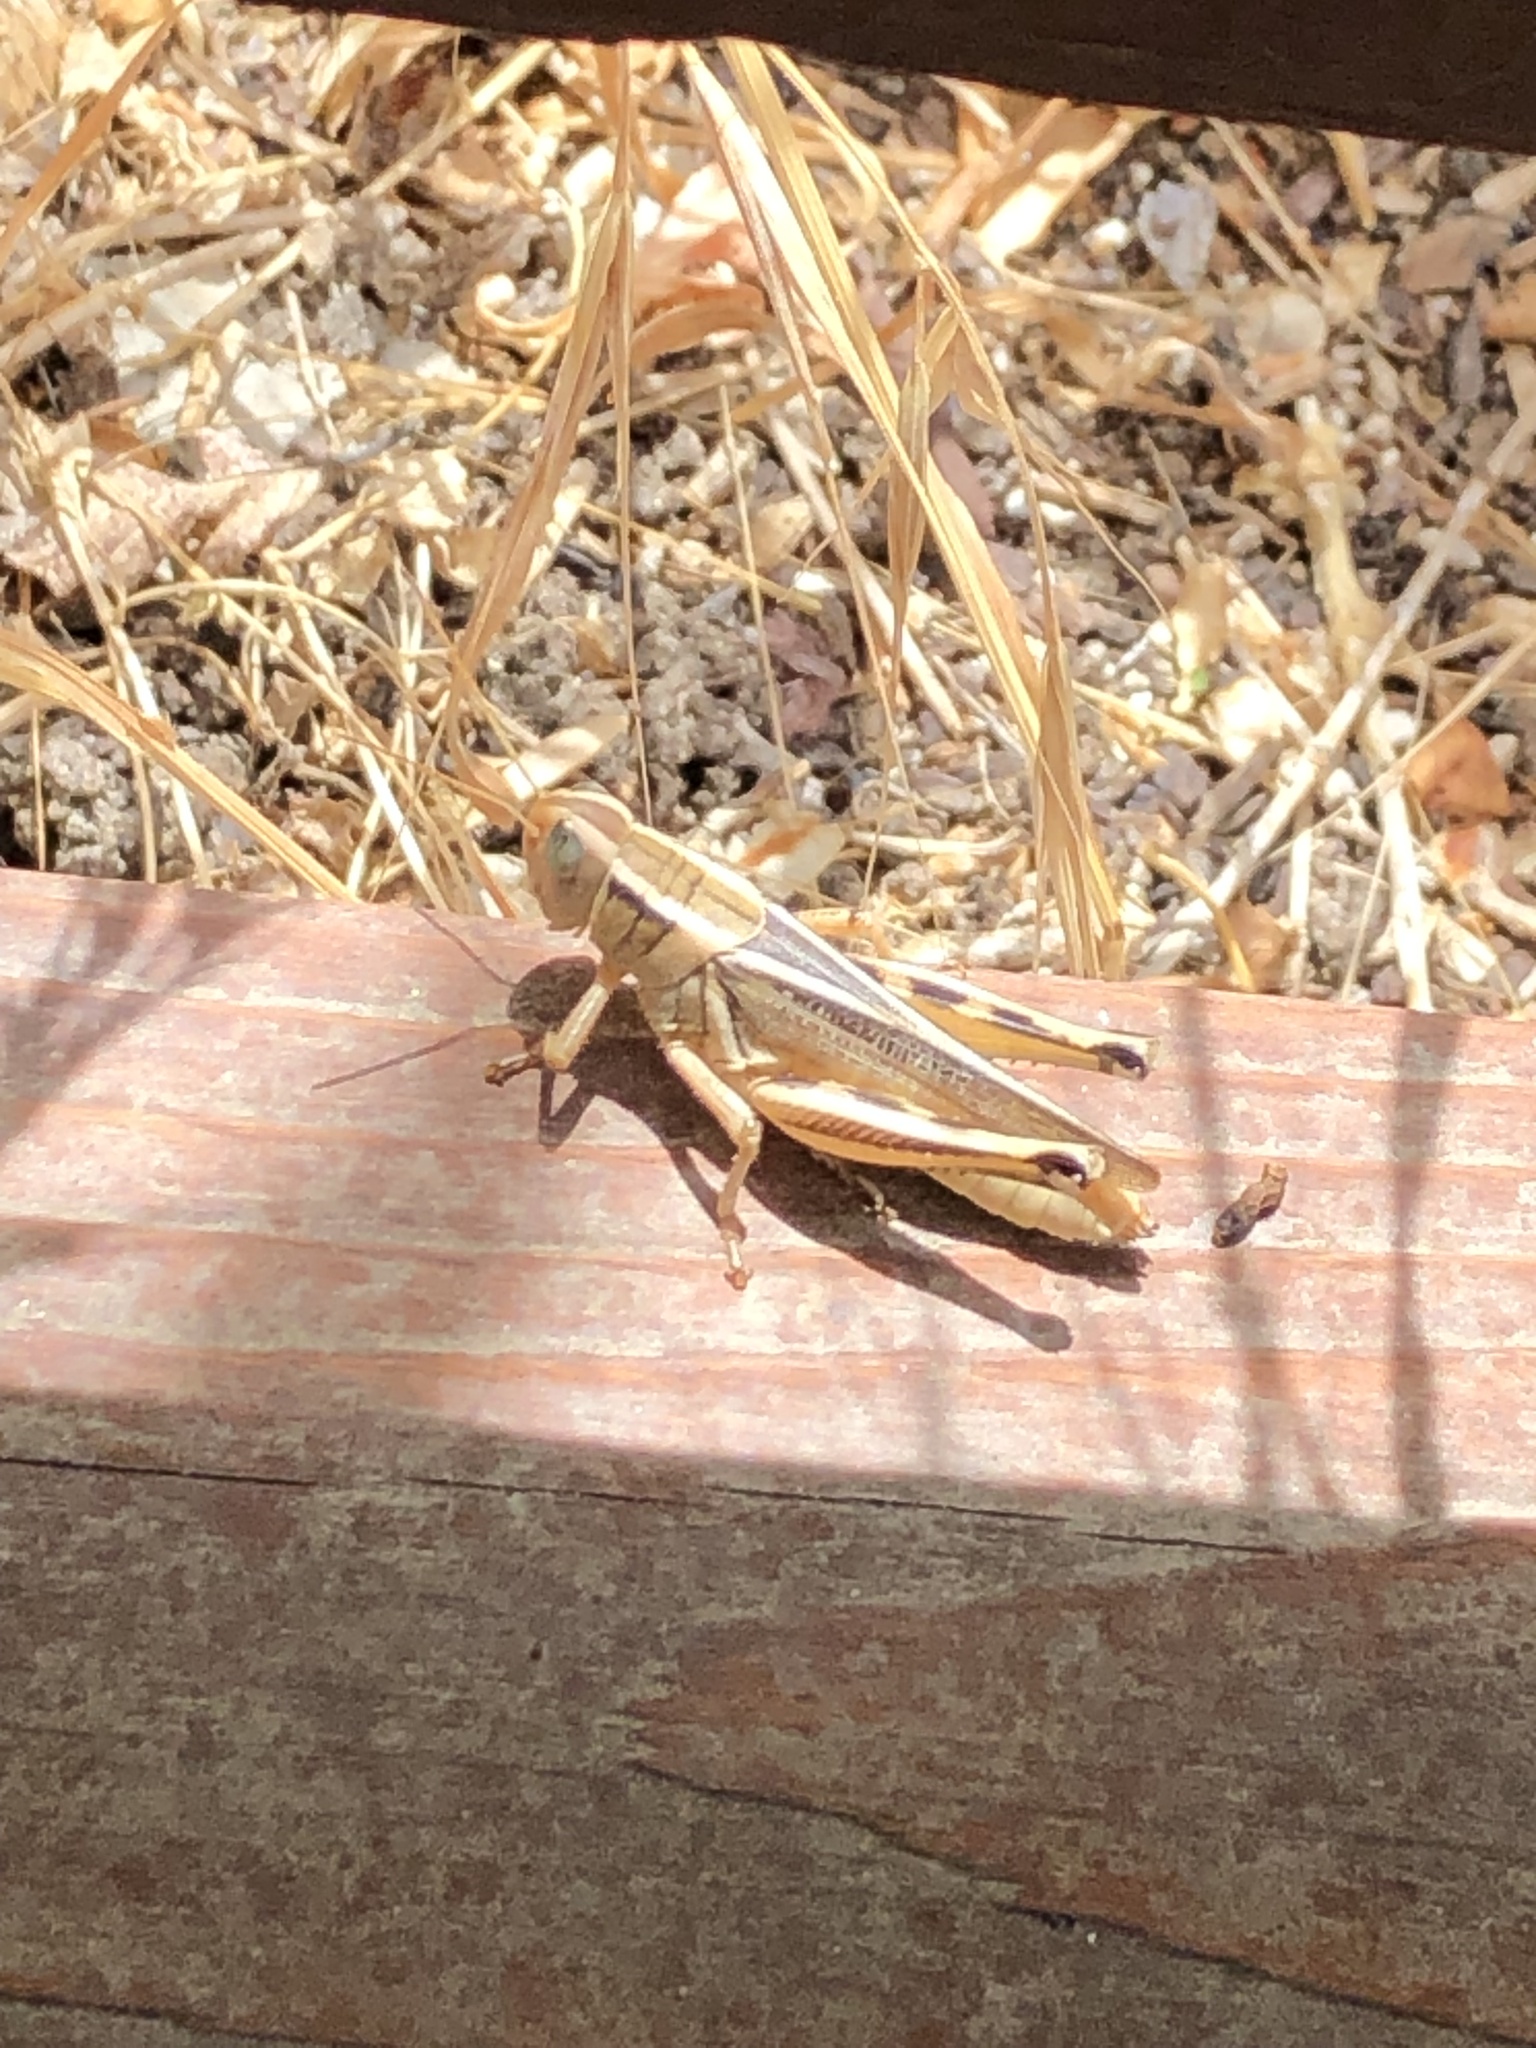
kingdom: Animalia
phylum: Arthropoda
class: Insecta
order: Orthoptera
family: Acrididae
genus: Melanoplus
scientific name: Melanoplus bivittatus
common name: Two-striped grasshopper
